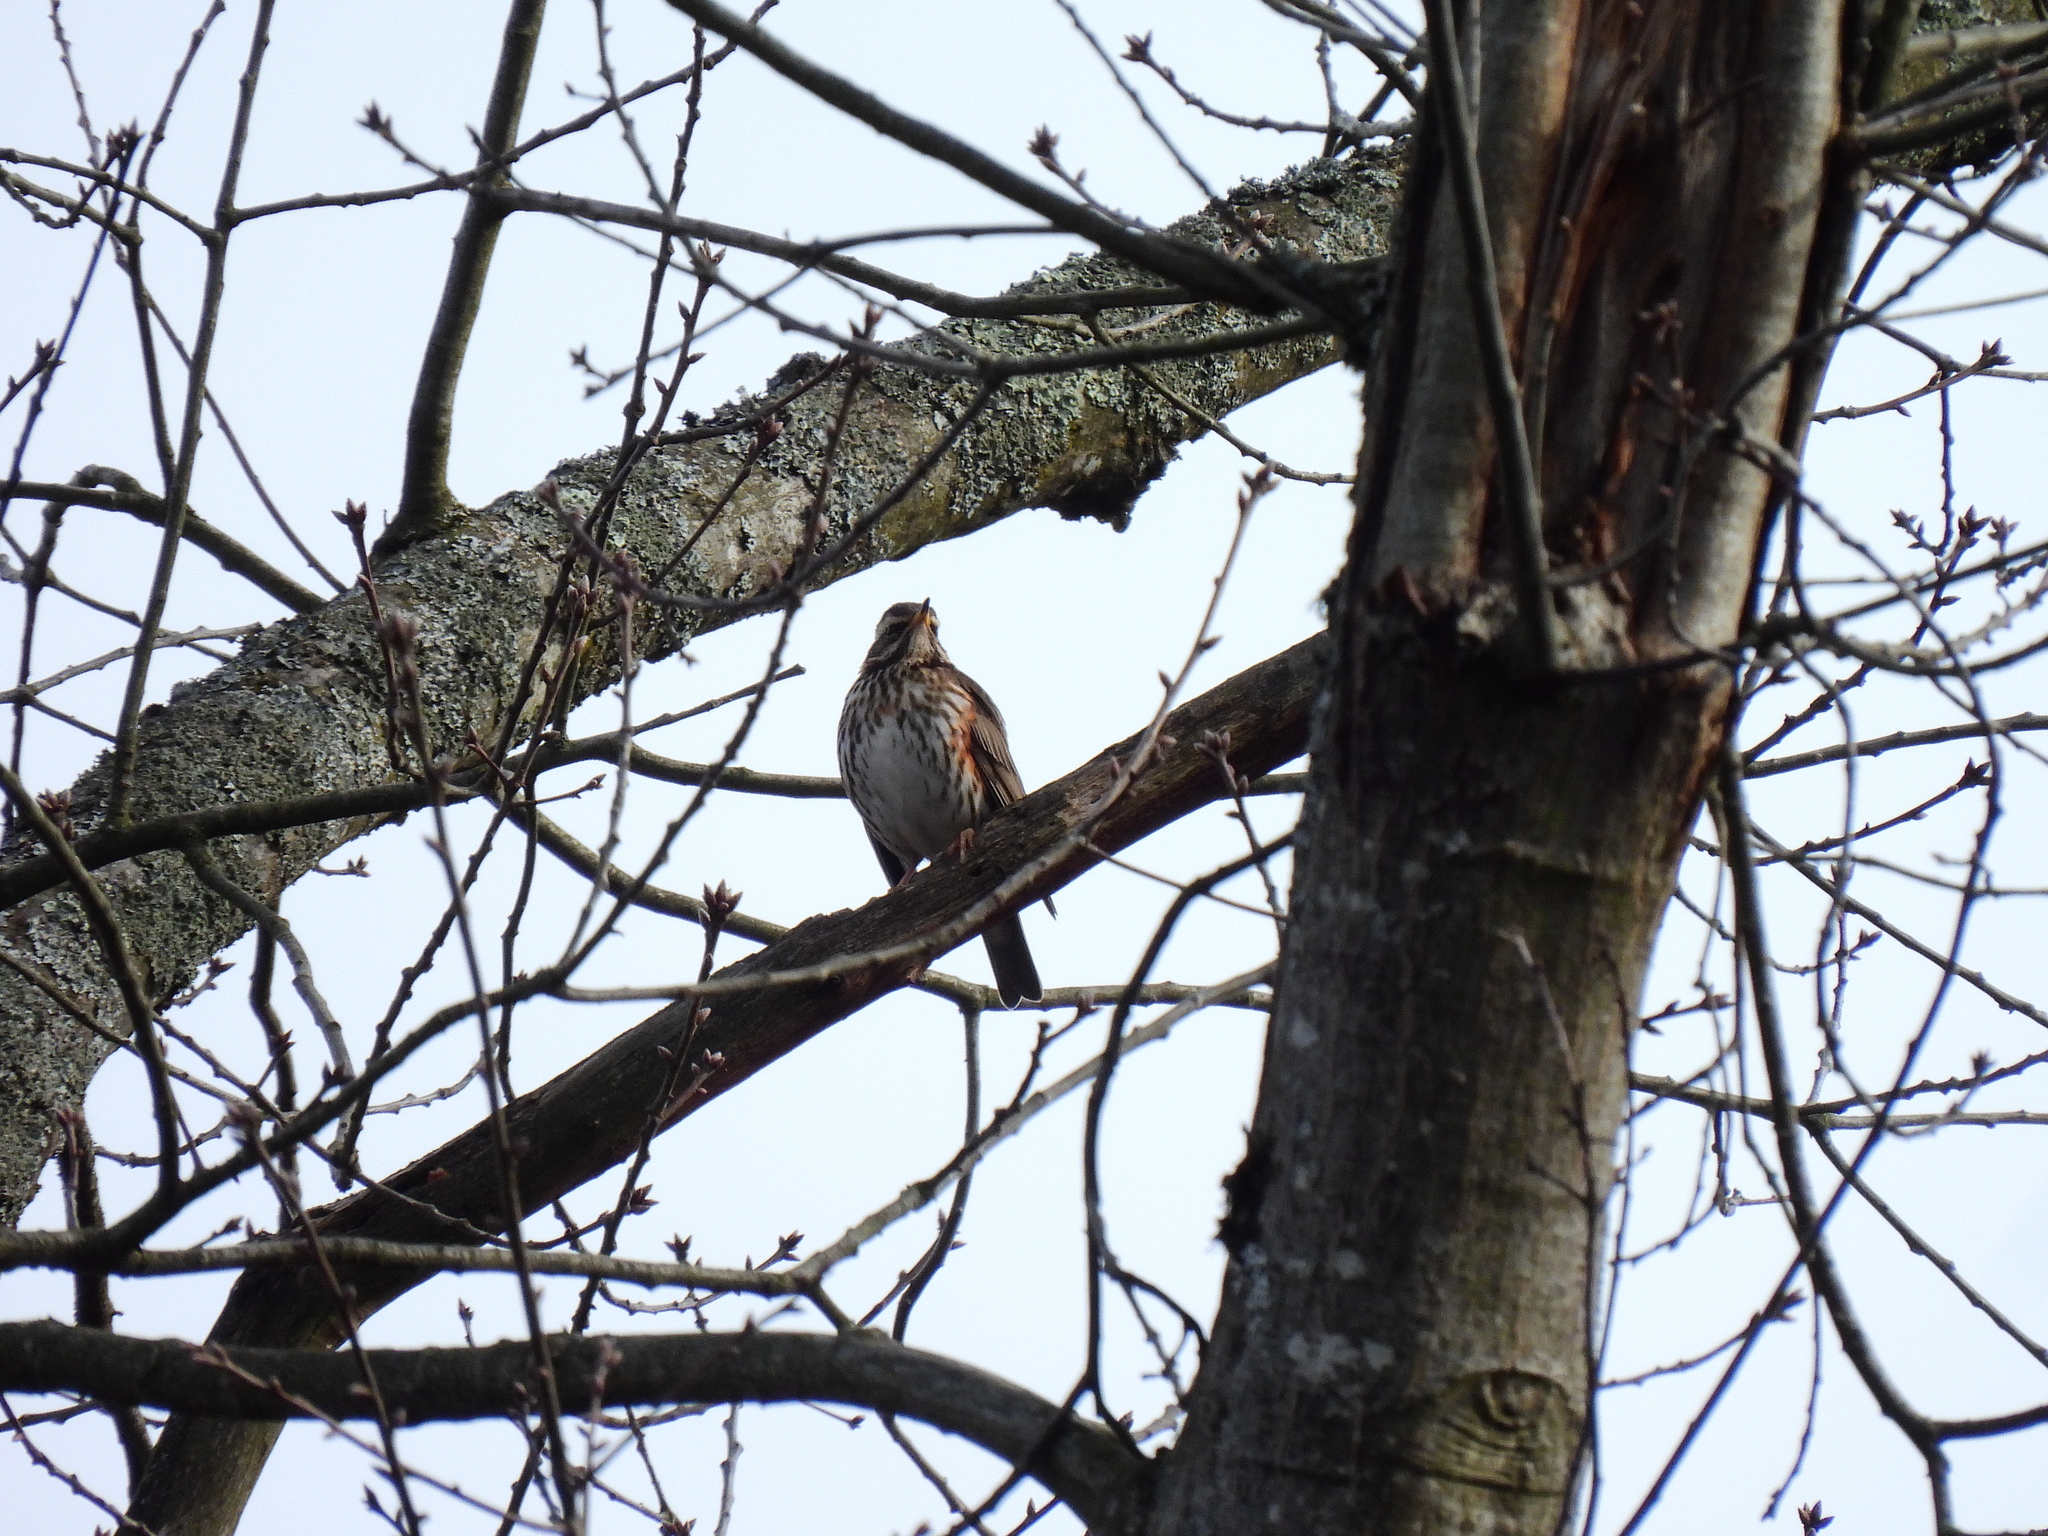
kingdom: Animalia
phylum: Chordata
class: Aves
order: Passeriformes
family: Turdidae
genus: Turdus
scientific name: Turdus iliacus
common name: Redwing
